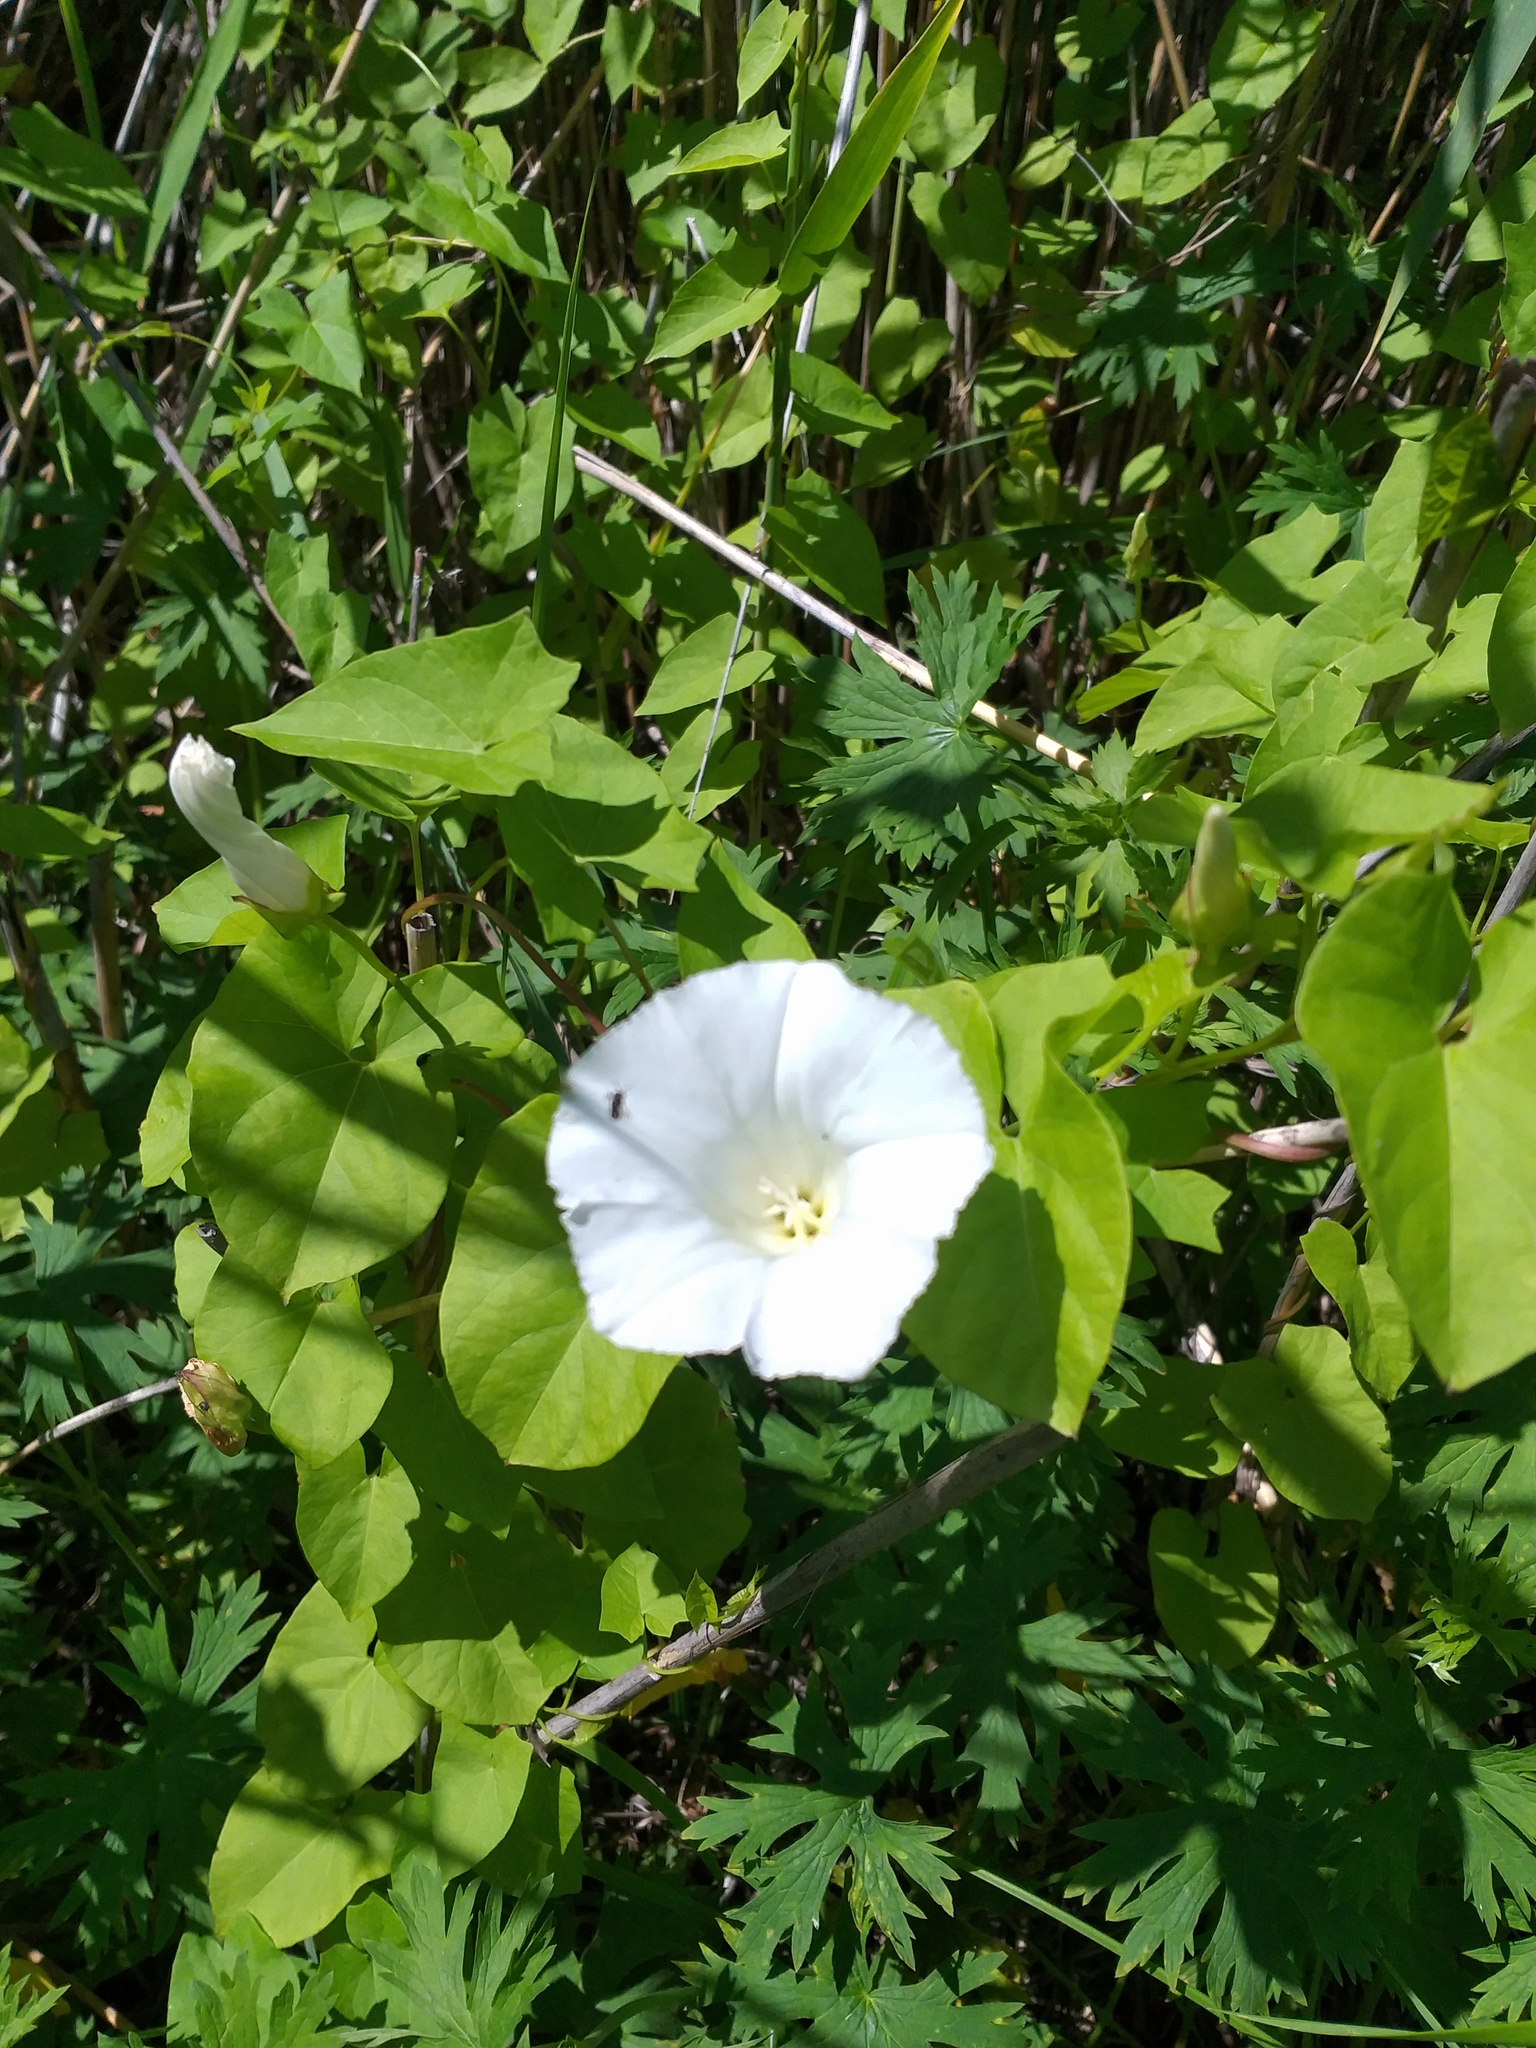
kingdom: Plantae
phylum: Tracheophyta
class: Magnoliopsida
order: Solanales
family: Convolvulaceae
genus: Calystegia
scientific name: Calystegia sepium
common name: Hedge bindweed
